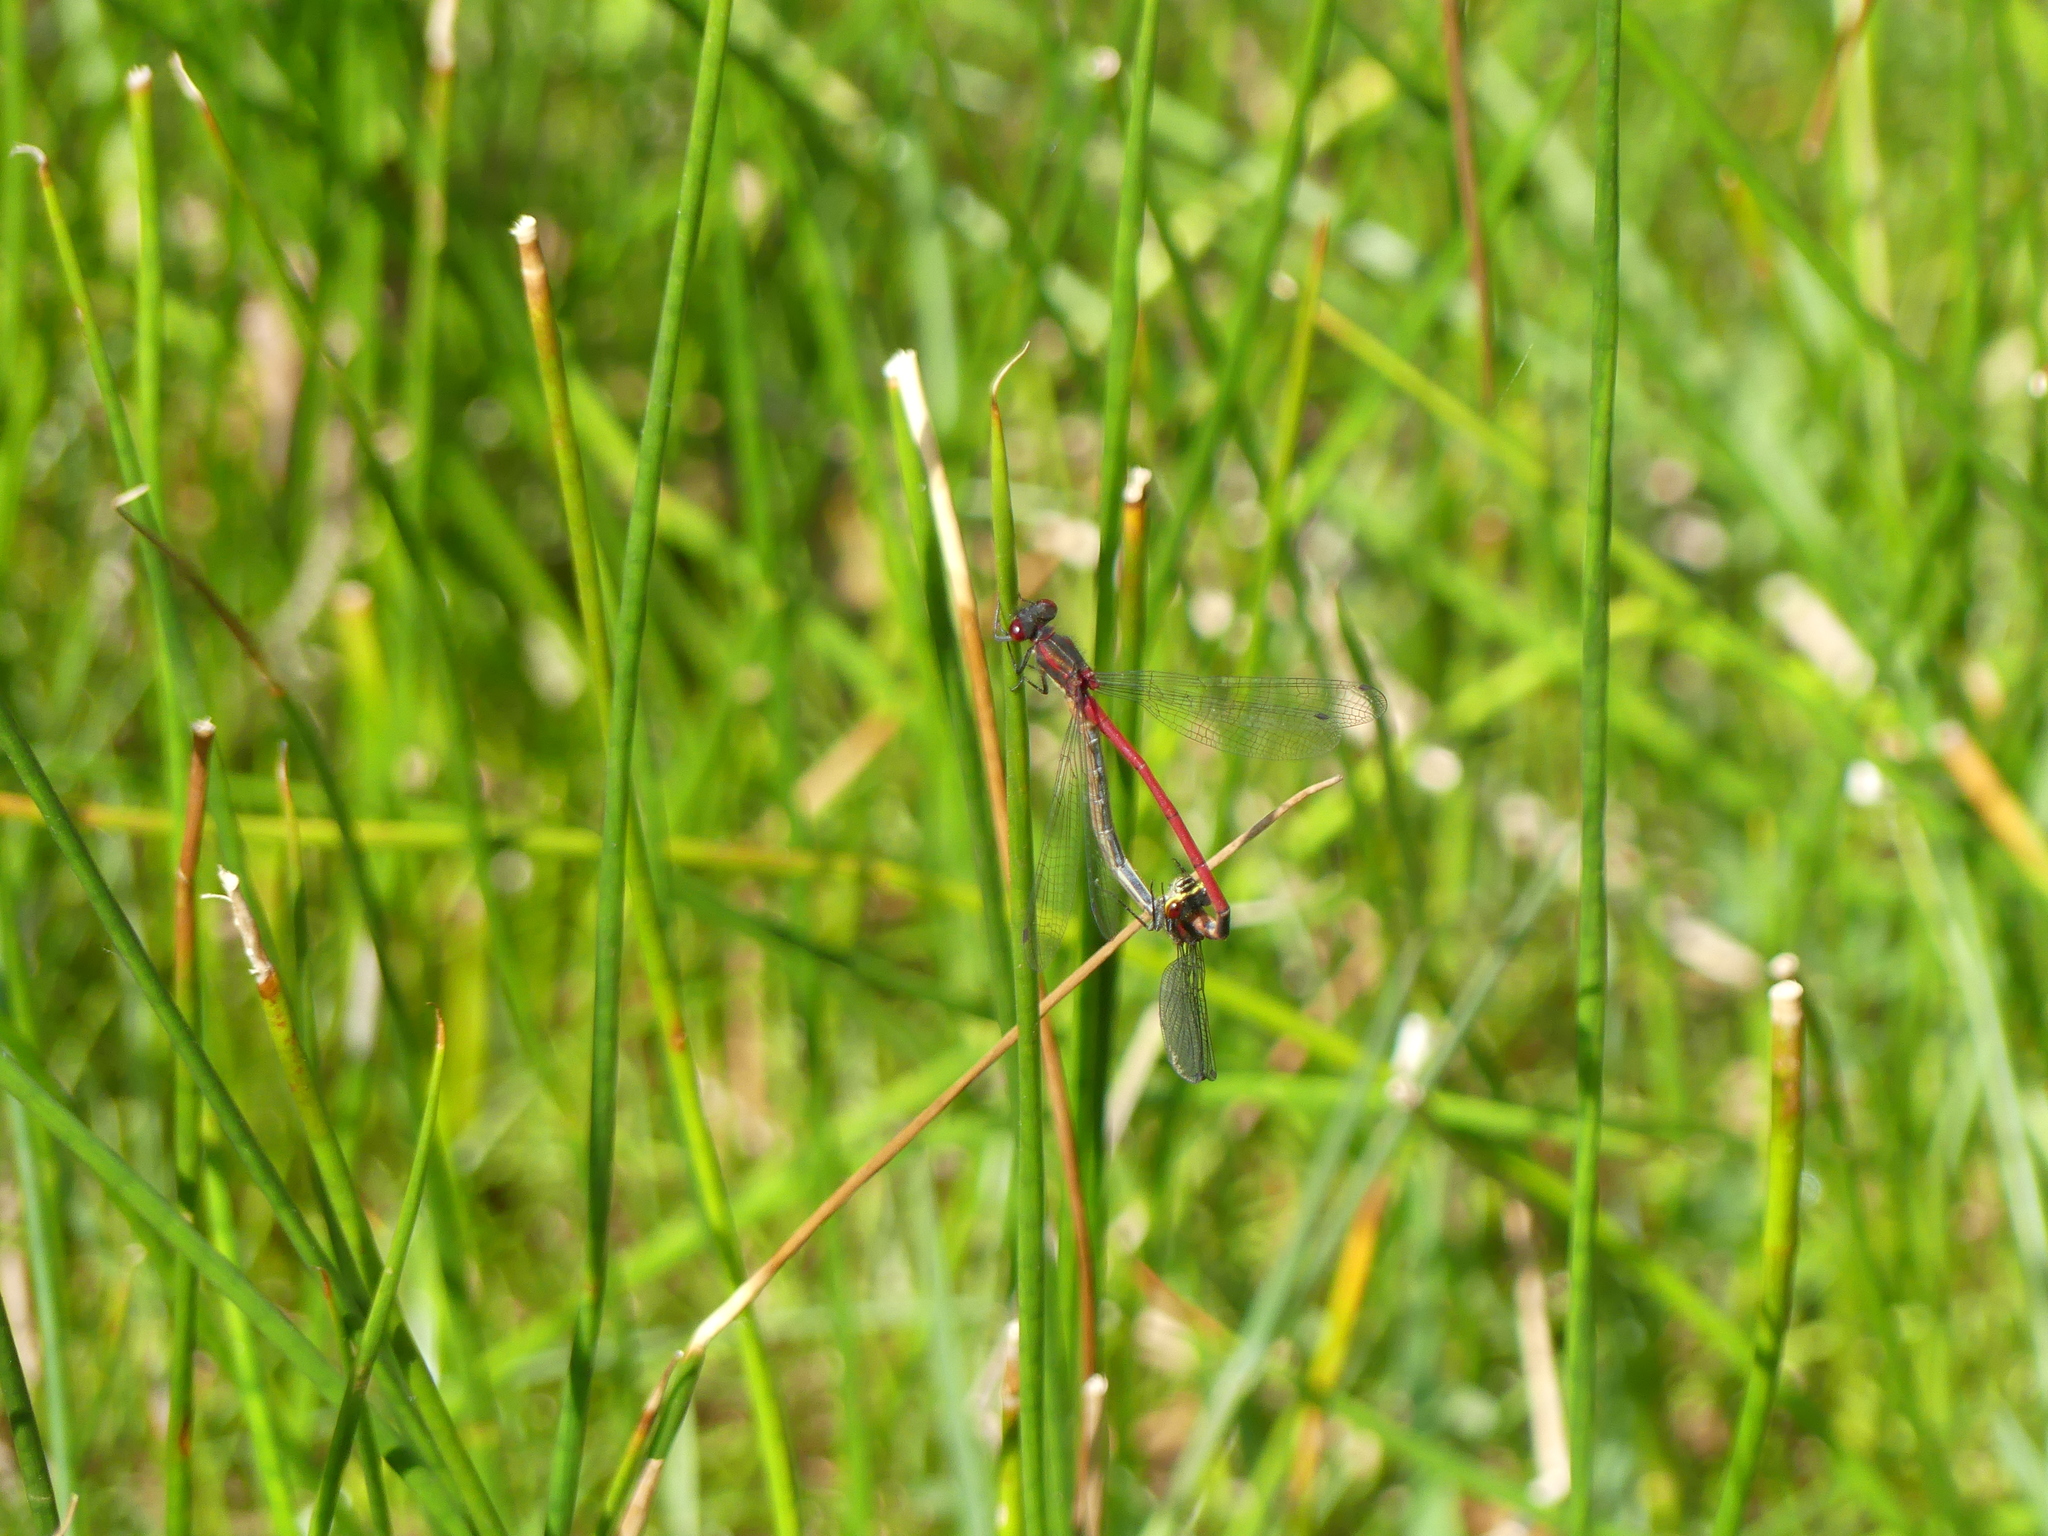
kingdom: Animalia
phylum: Arthropoda
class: Insecta
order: Odonata
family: Coenagrionidae
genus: Pyrrhosoma
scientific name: Pyrrhosoma nymphula
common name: Large red damsel
